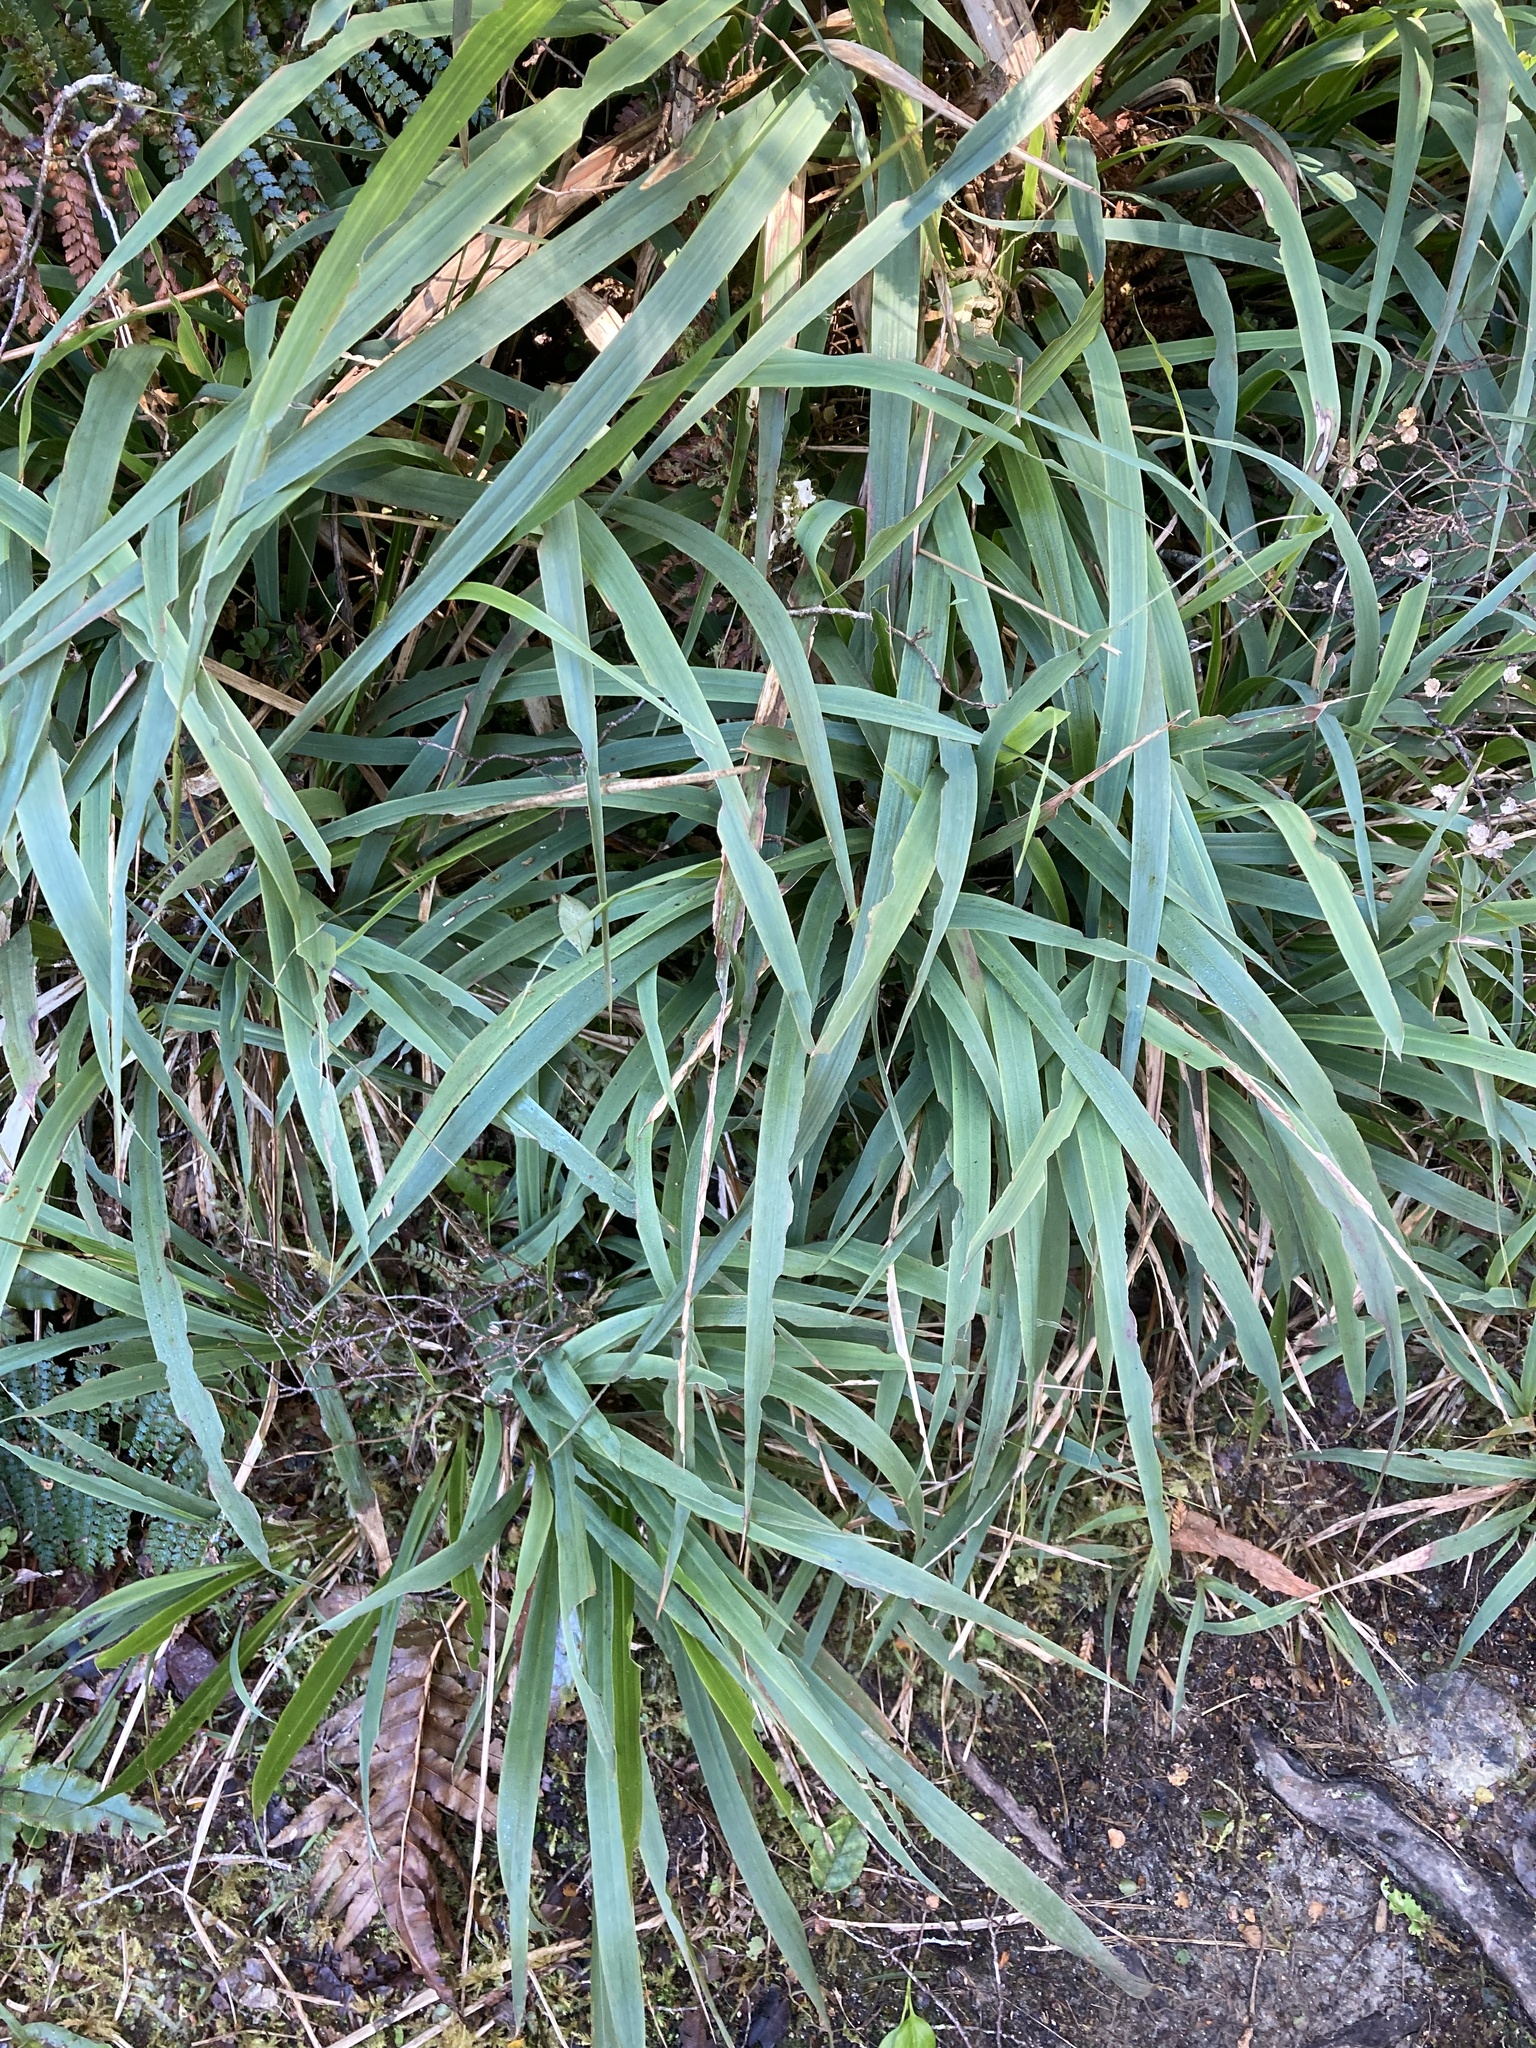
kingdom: Plantae
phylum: Tracheophyta
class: Liliopsida
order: Poales
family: Poaceae
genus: Ehrharta
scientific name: Ehrharta diplax
